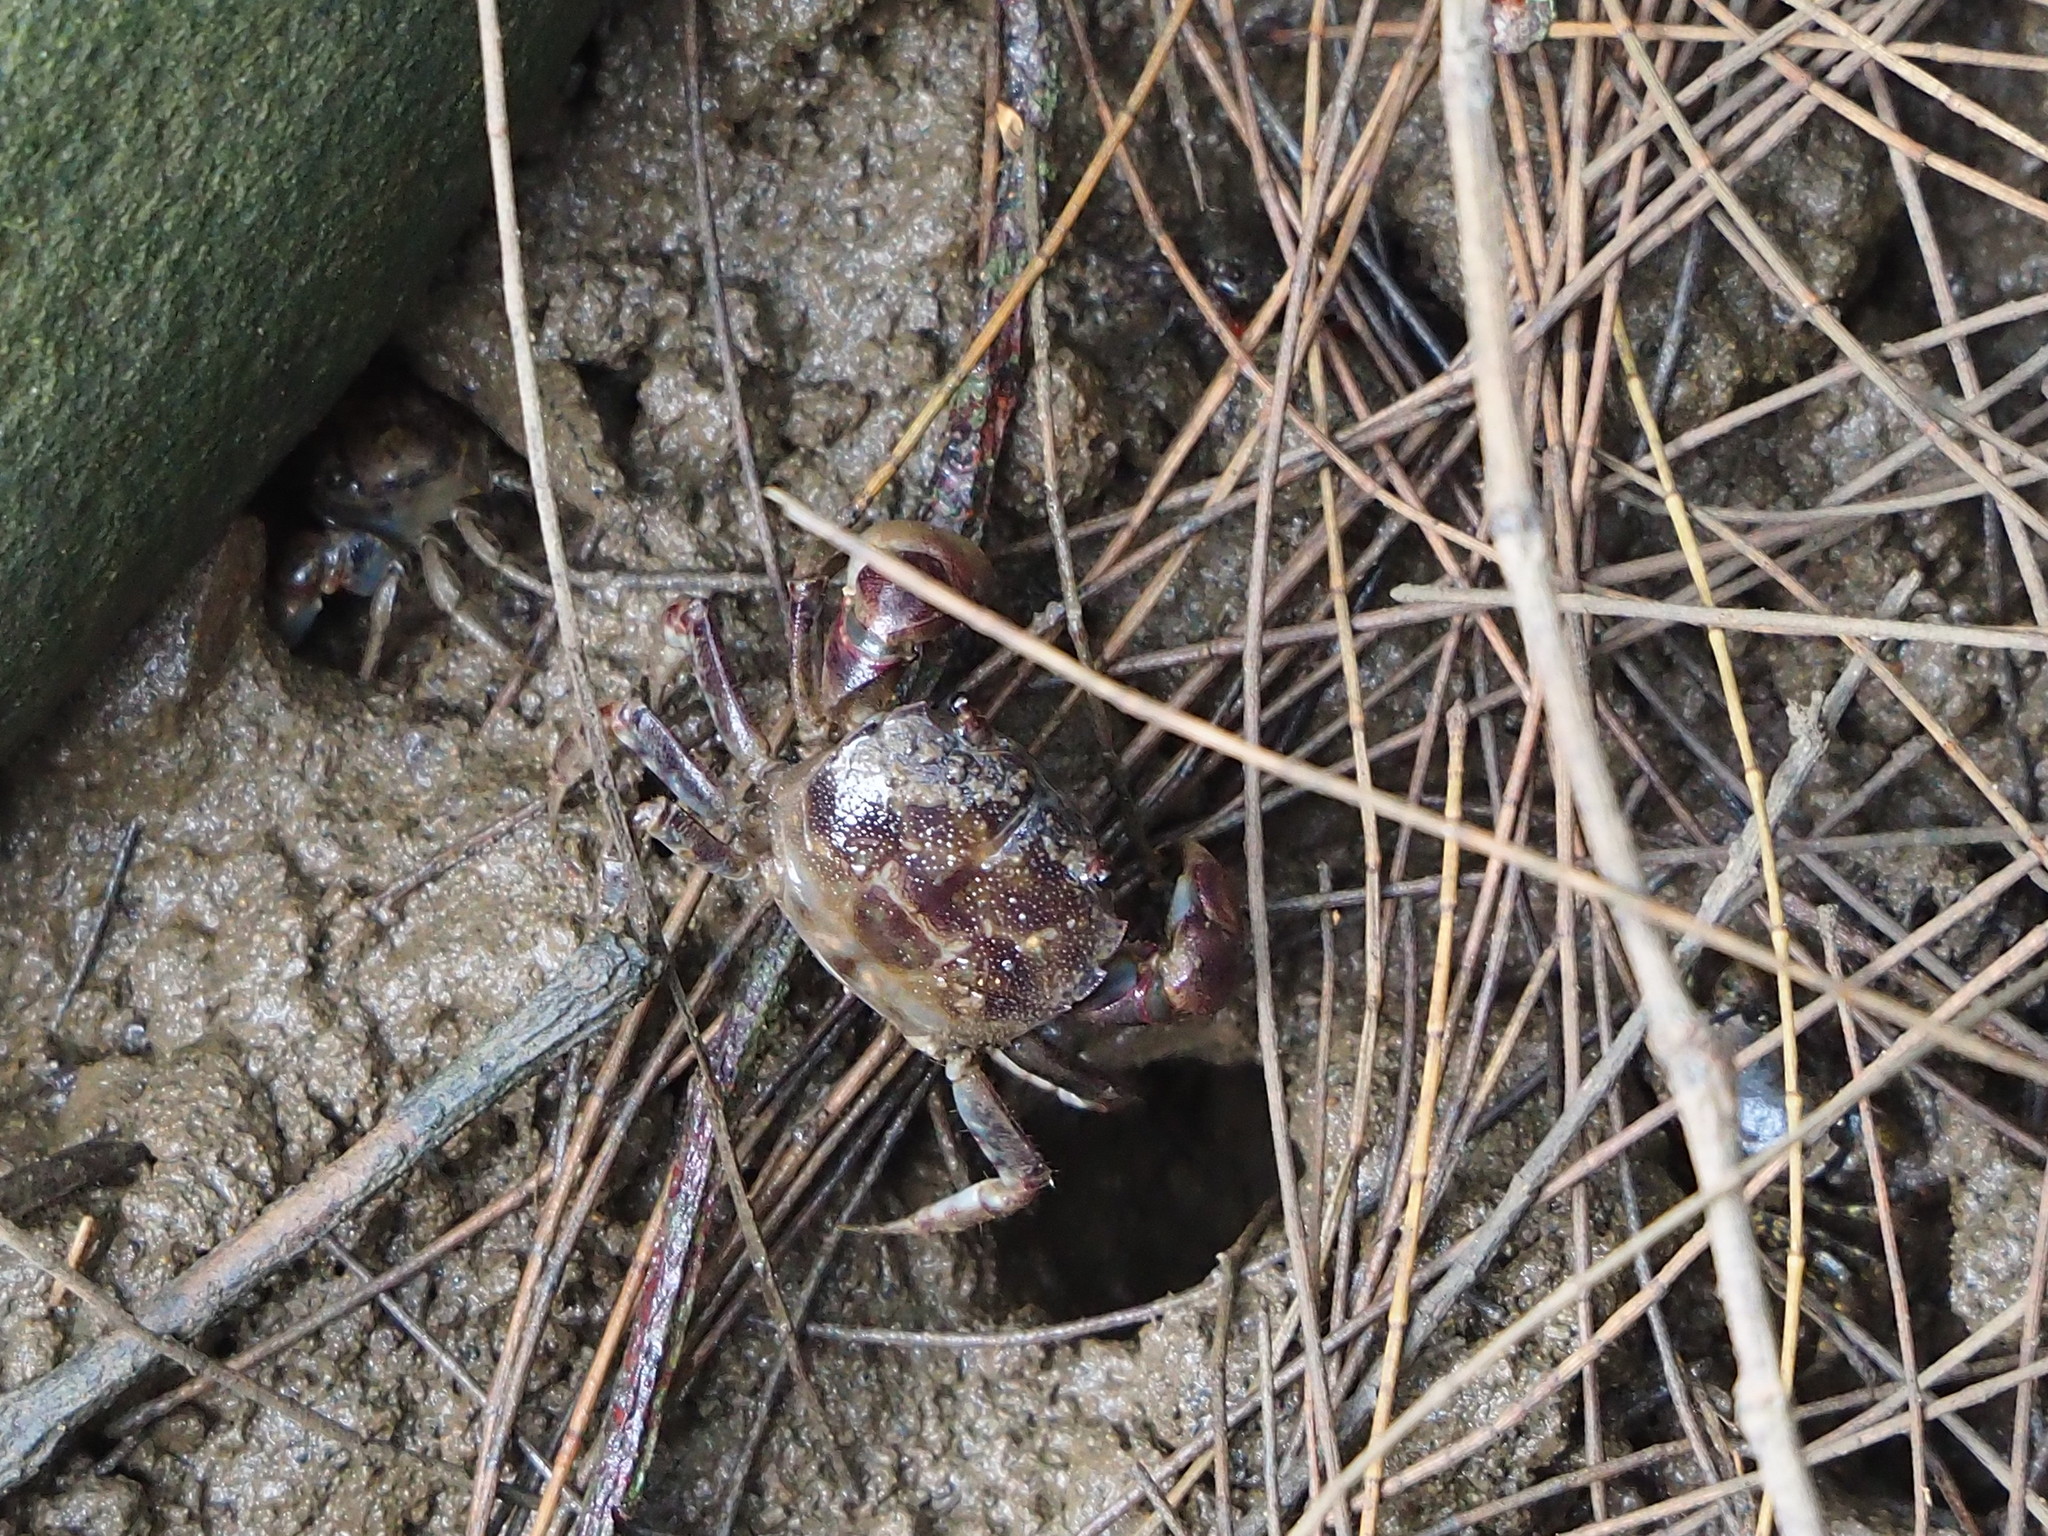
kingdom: Animalia
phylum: Arthropoda
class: Malacostraca
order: Decapoda
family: Varunidae
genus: Pseudohelice
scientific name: Pseudohelice subquadrata
